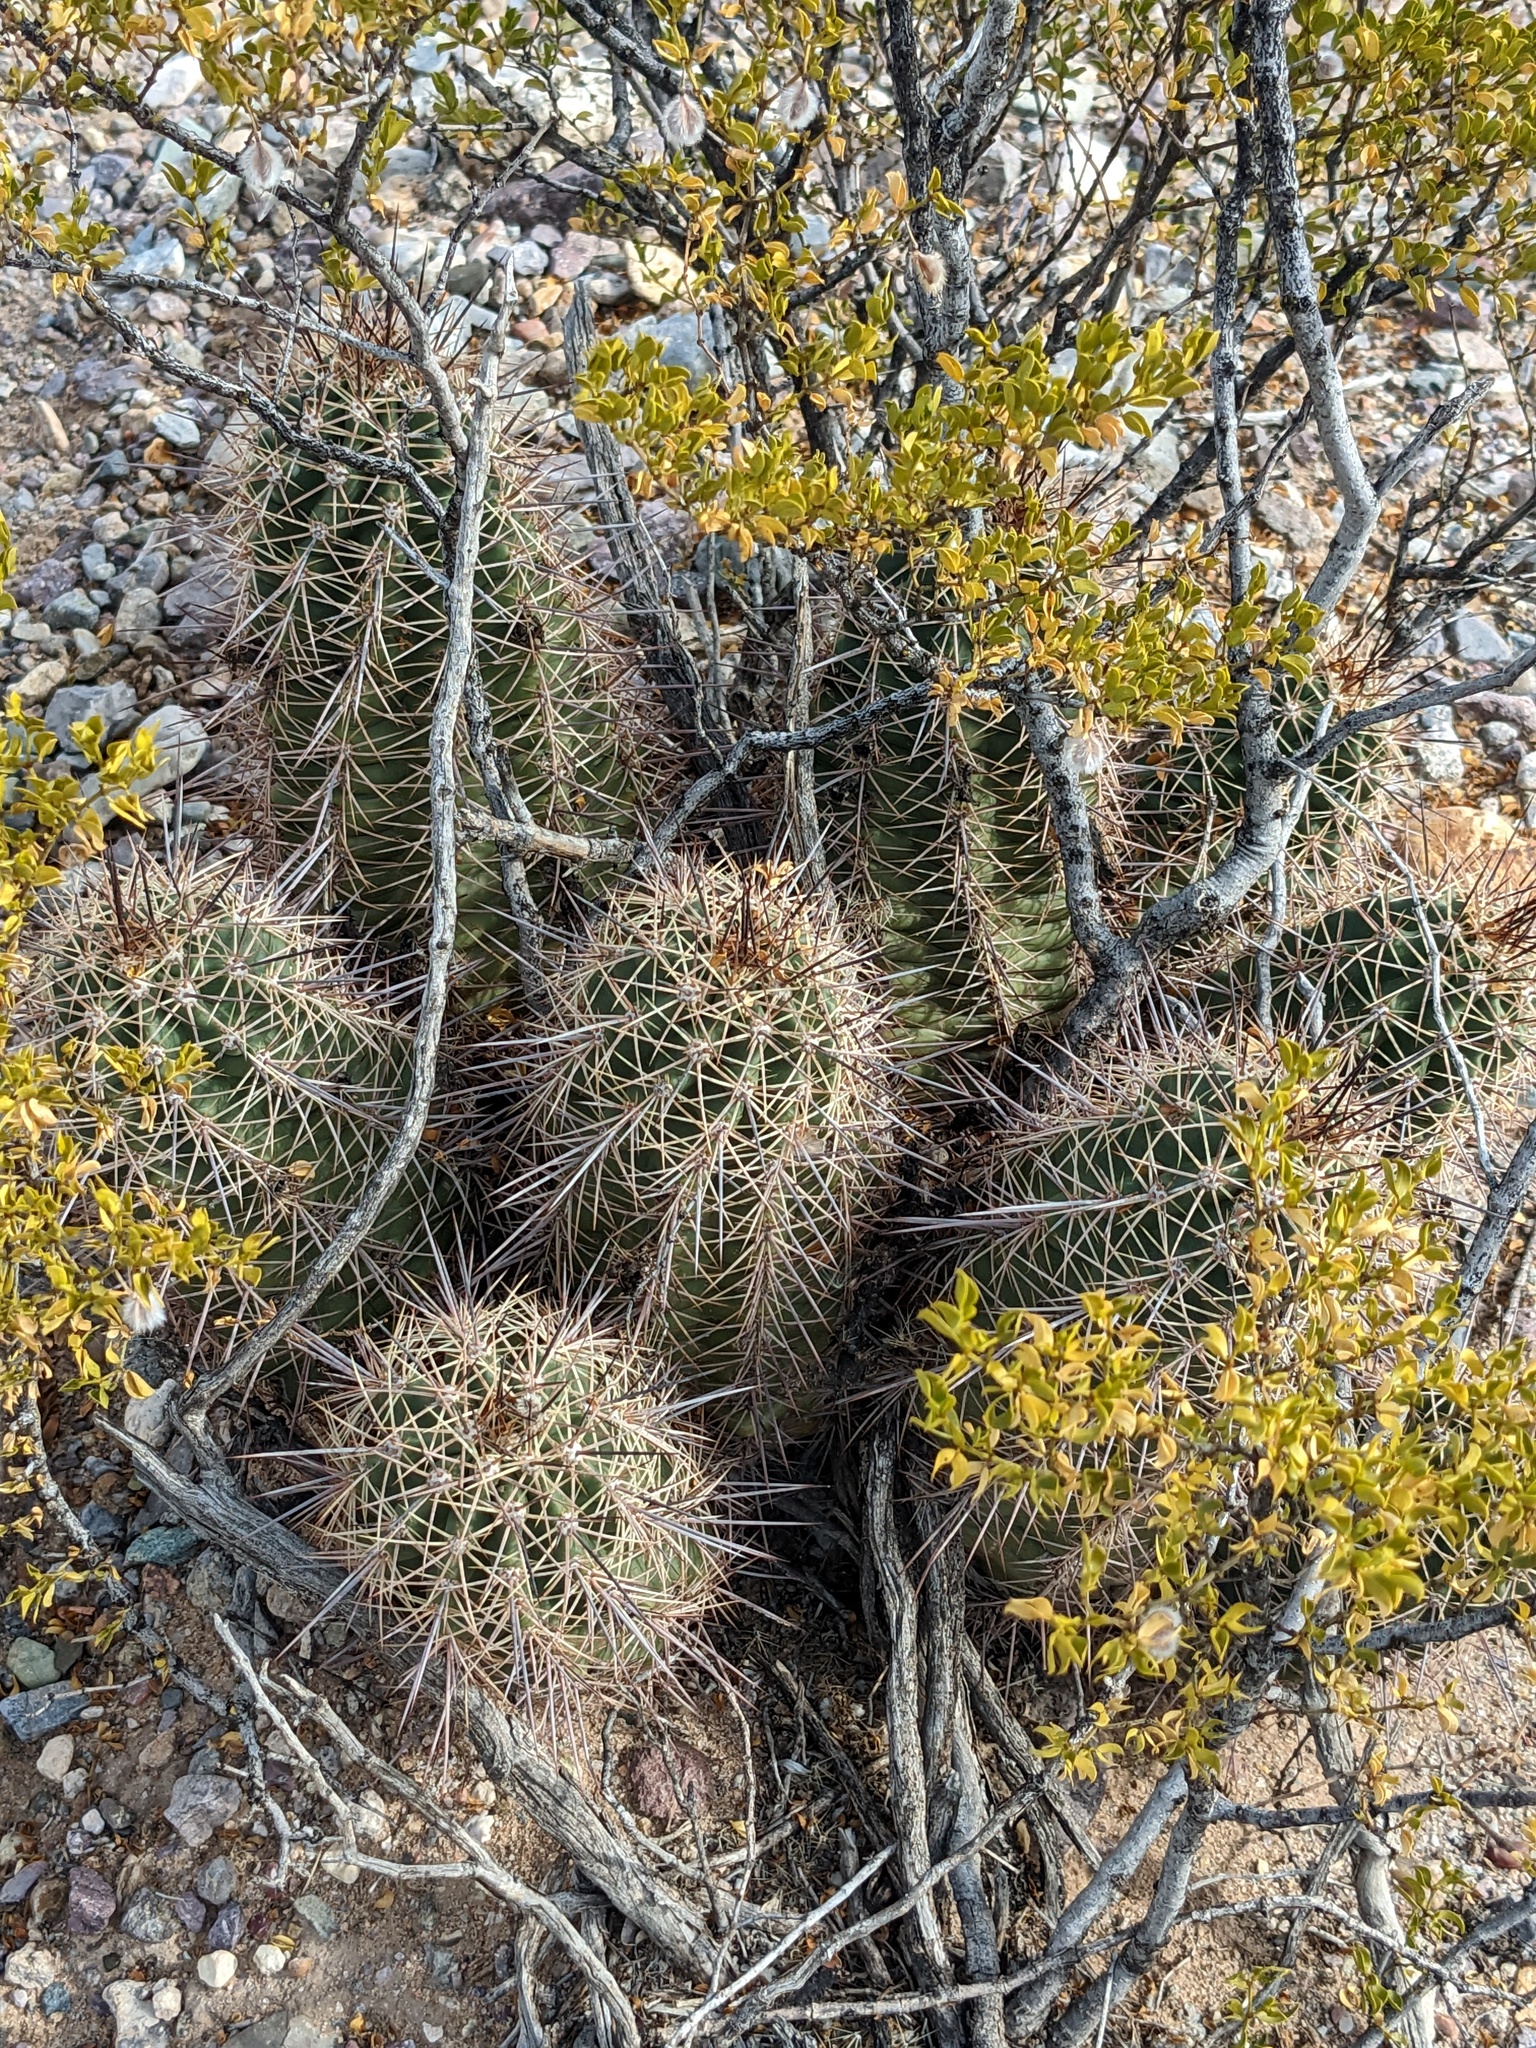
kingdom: Plantae
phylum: Tracheophyta
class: Magnoliopsida
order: Caryophyllales
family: Cactaceae
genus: Echinocereus
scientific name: Echinocereus coccineus
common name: Scarlet hedgehog cactus
